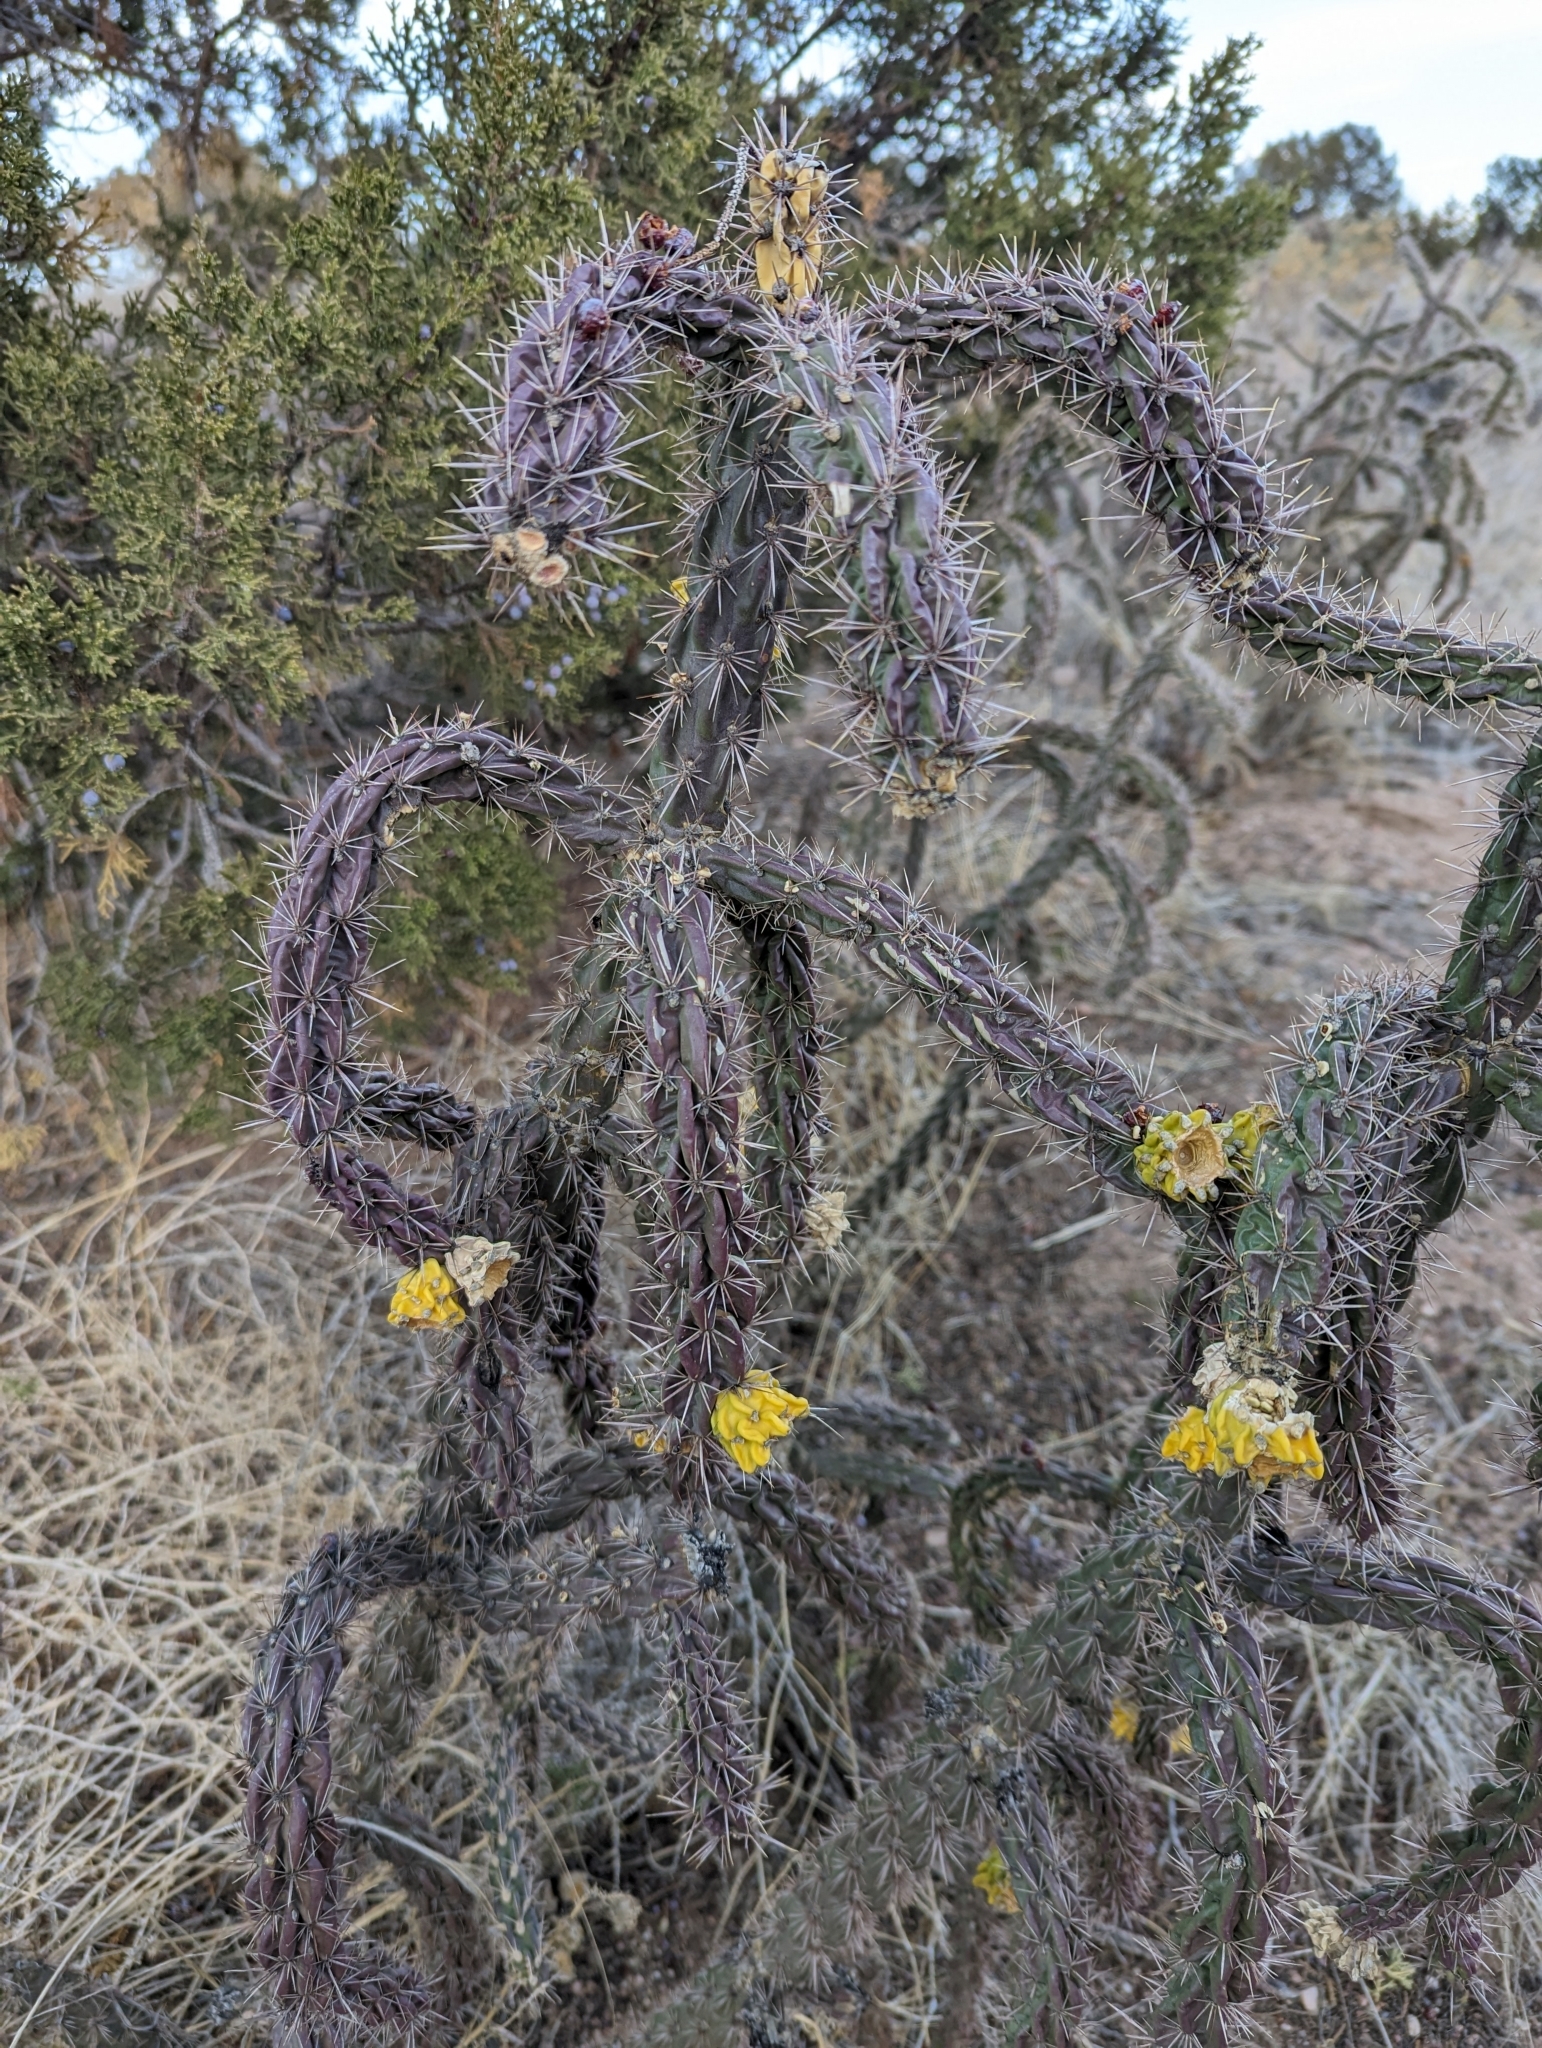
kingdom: Plantae
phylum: Tracheophyta
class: Magnoliopsida
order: Caryophyllales
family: Cactaceae
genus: Cylindropuntia
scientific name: Cylindropuntia imbricata
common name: Candelabrum cactus
